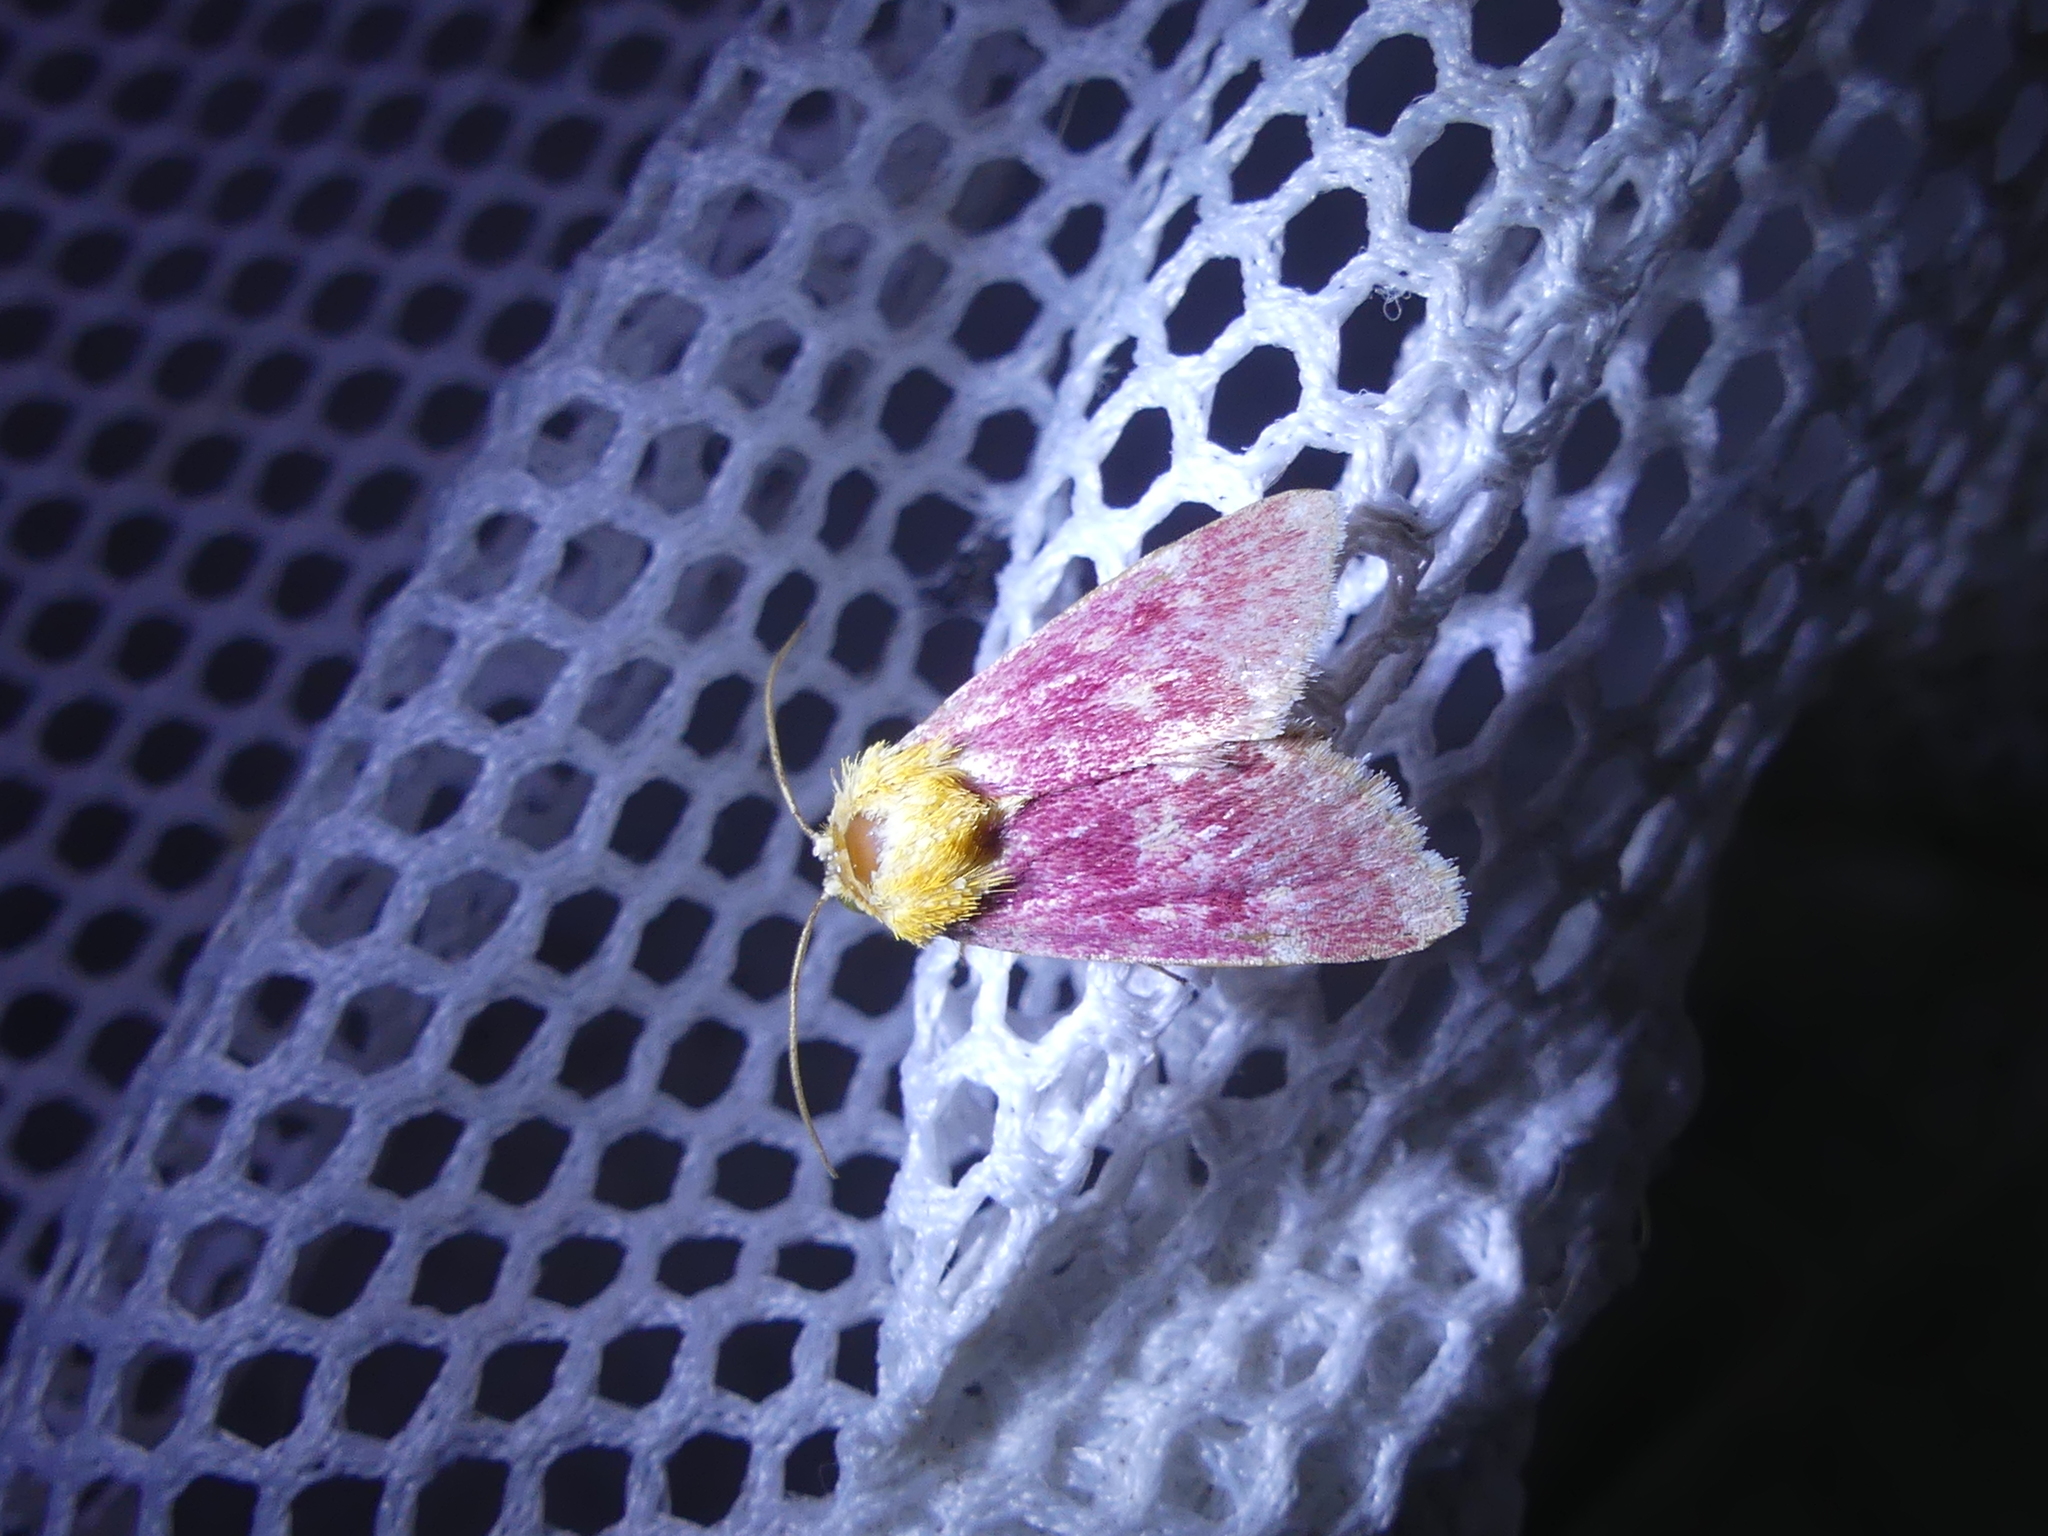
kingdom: Animalia
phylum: Arthropoda
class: Insecta
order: Lepidoptera
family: Noctuidae
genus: Schinia
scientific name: Schinia volupia
